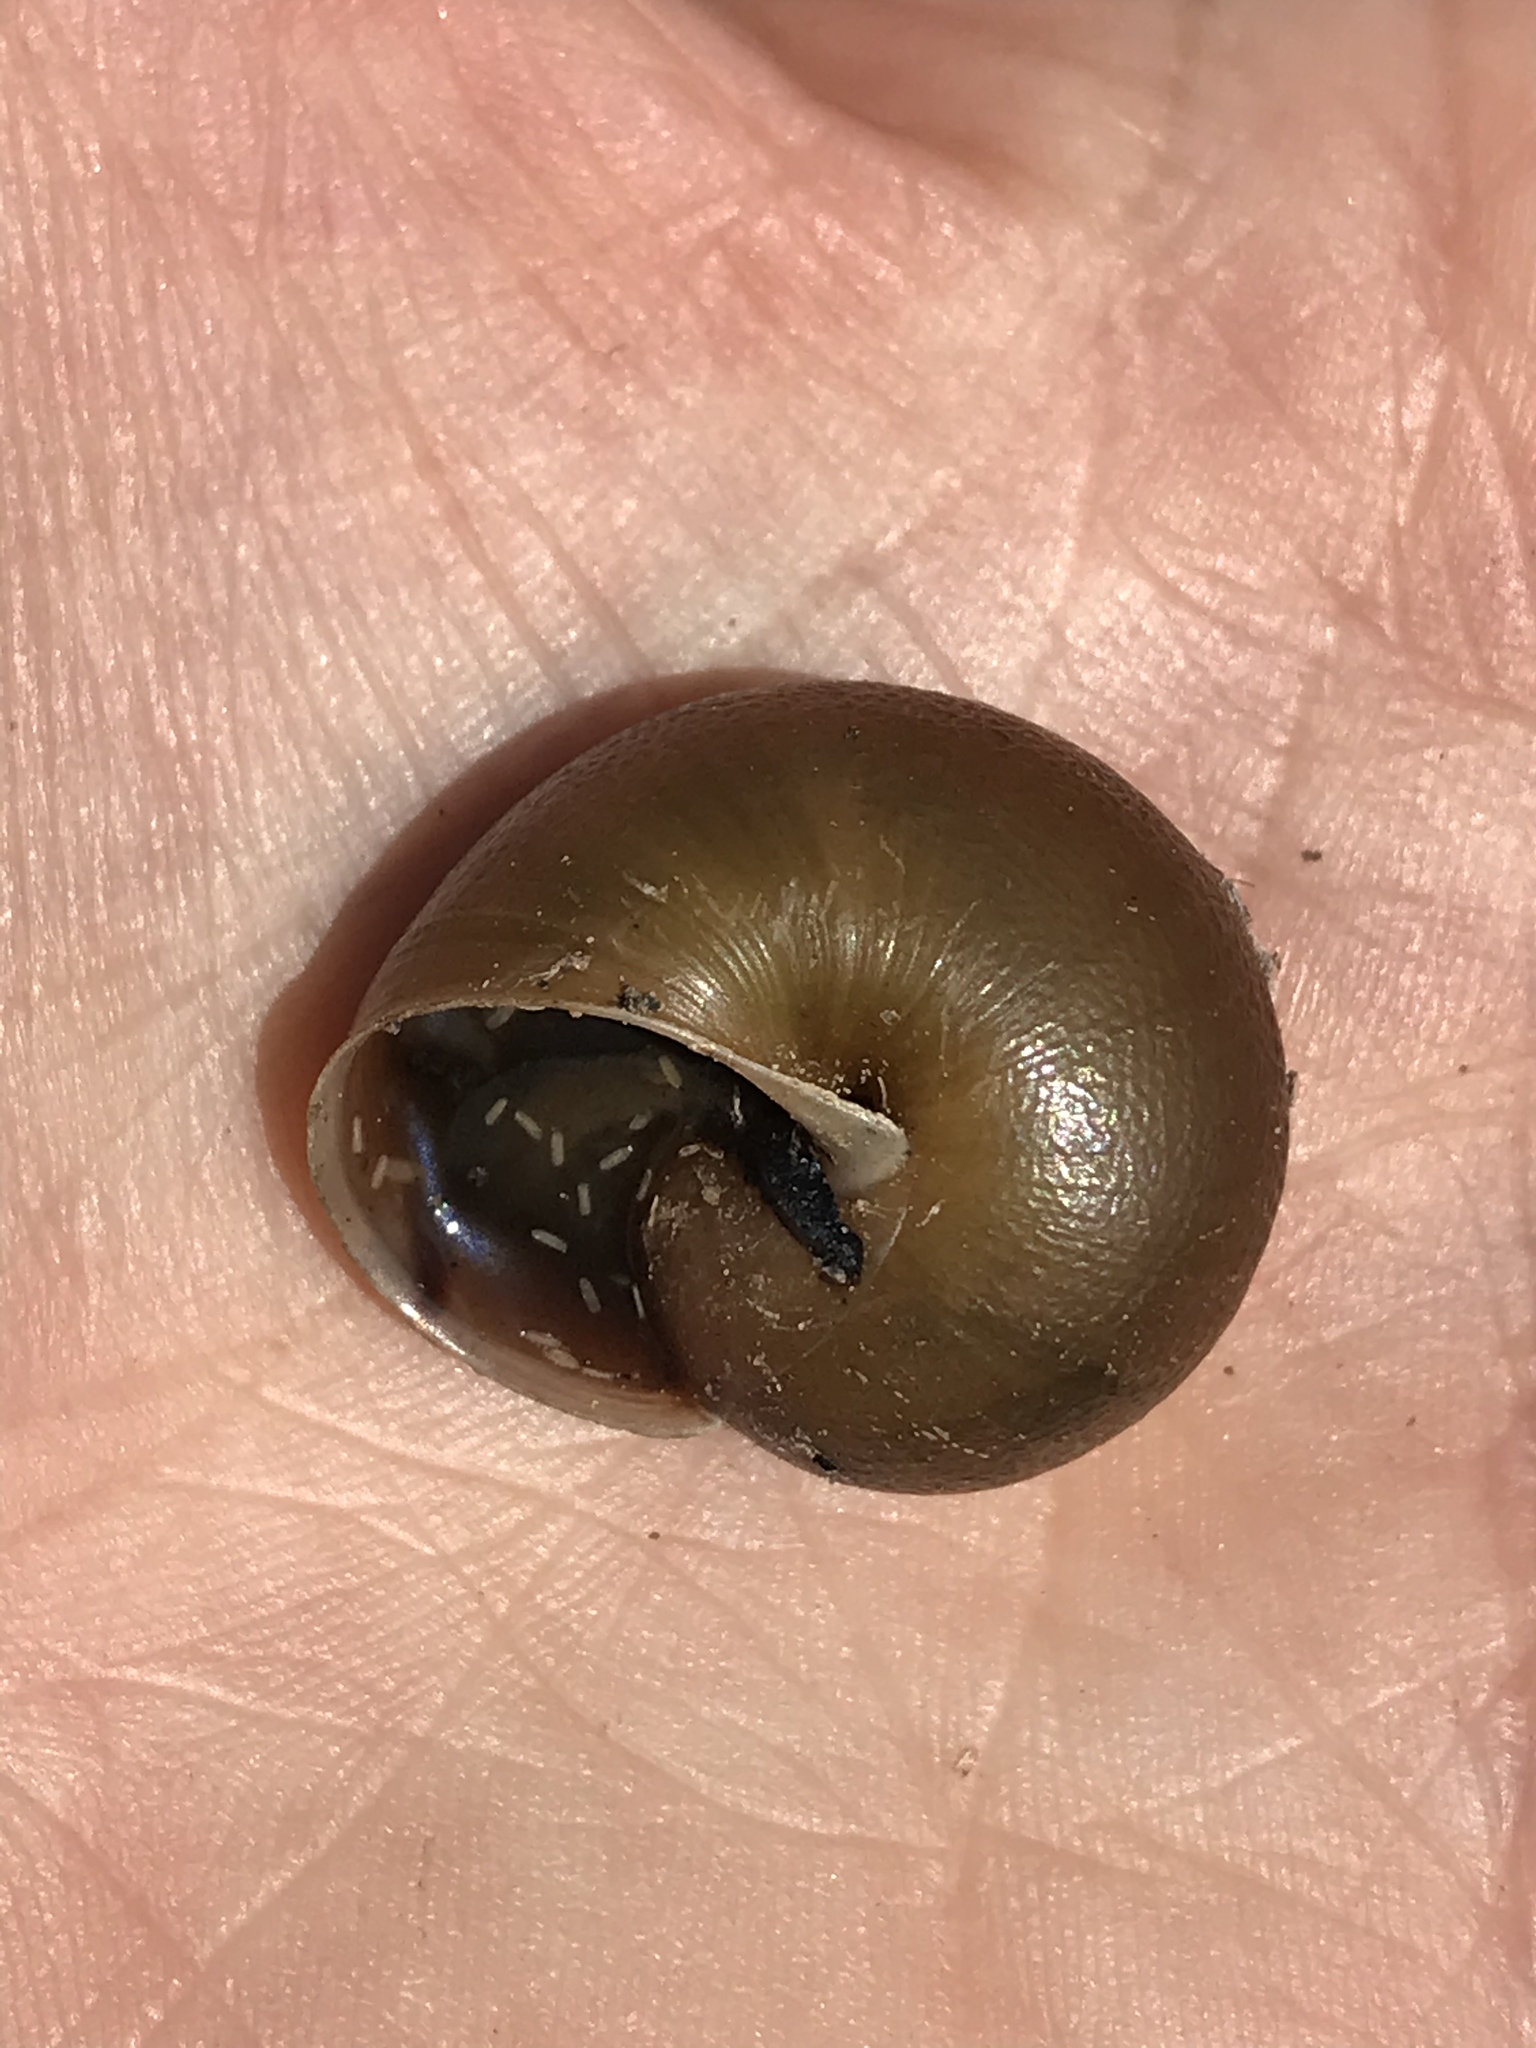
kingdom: Animalia
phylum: Mollusca
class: Gastropoda
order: Stylommatophora
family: Xanthonychidae
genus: Helminthoglypta
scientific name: Helminthoglypta tudiculata
